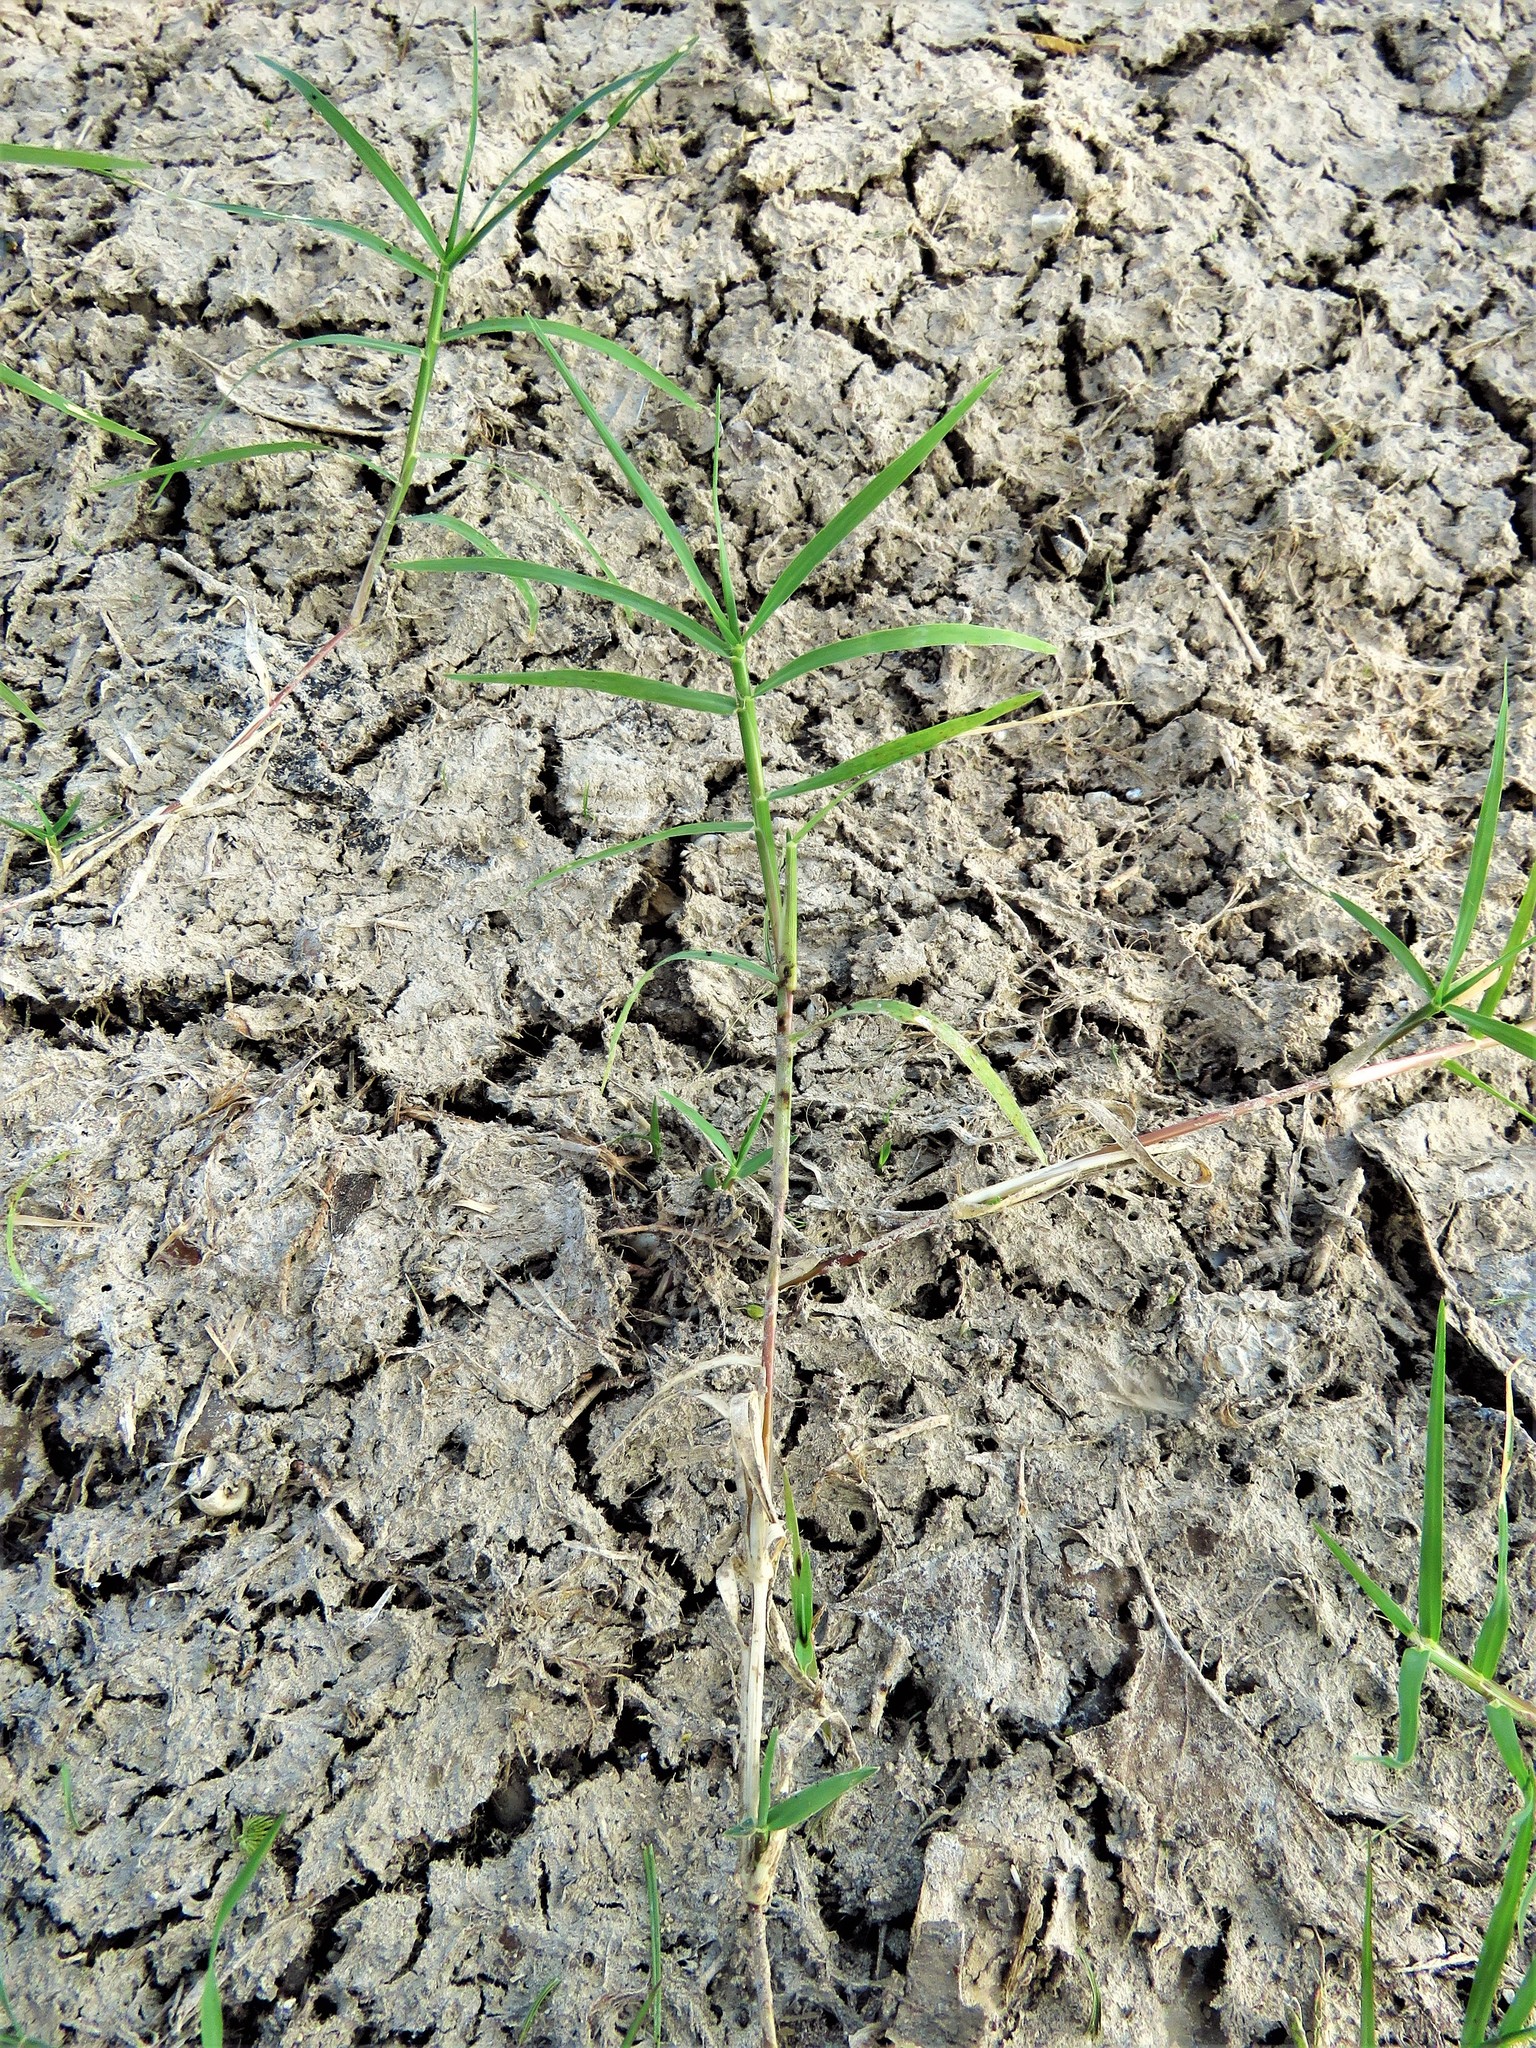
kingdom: Plantae
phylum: Tracheophyta
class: Liliopsida
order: Poales
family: Poaceae
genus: Cynodon
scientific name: Cynodon dactylon
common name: Bermuda grass
